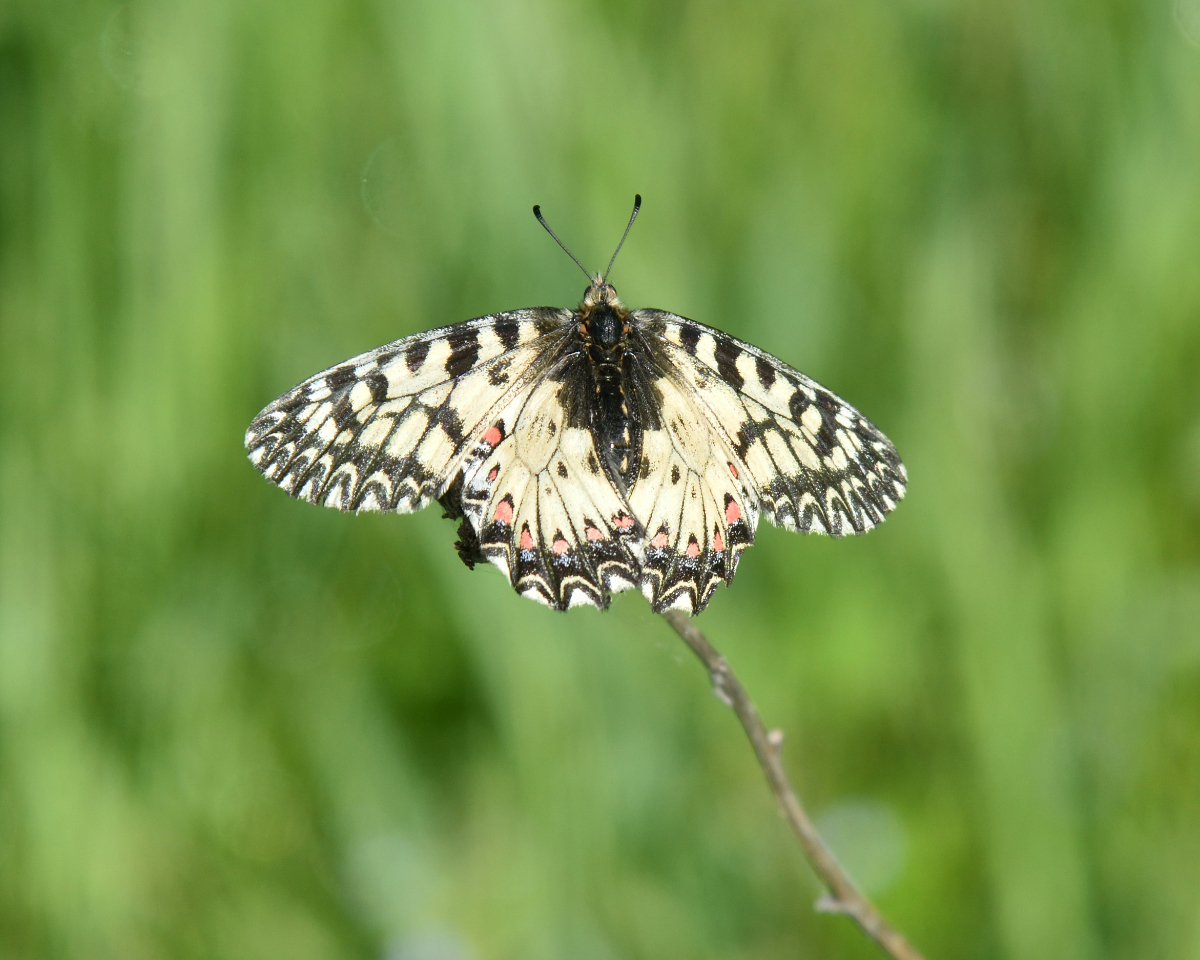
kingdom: Animalia
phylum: Arthropoda
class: Insecta
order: Lepidoptera
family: Papilionidae
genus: Zerynthia
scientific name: Zerynthia polyxena
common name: Southern festoon
